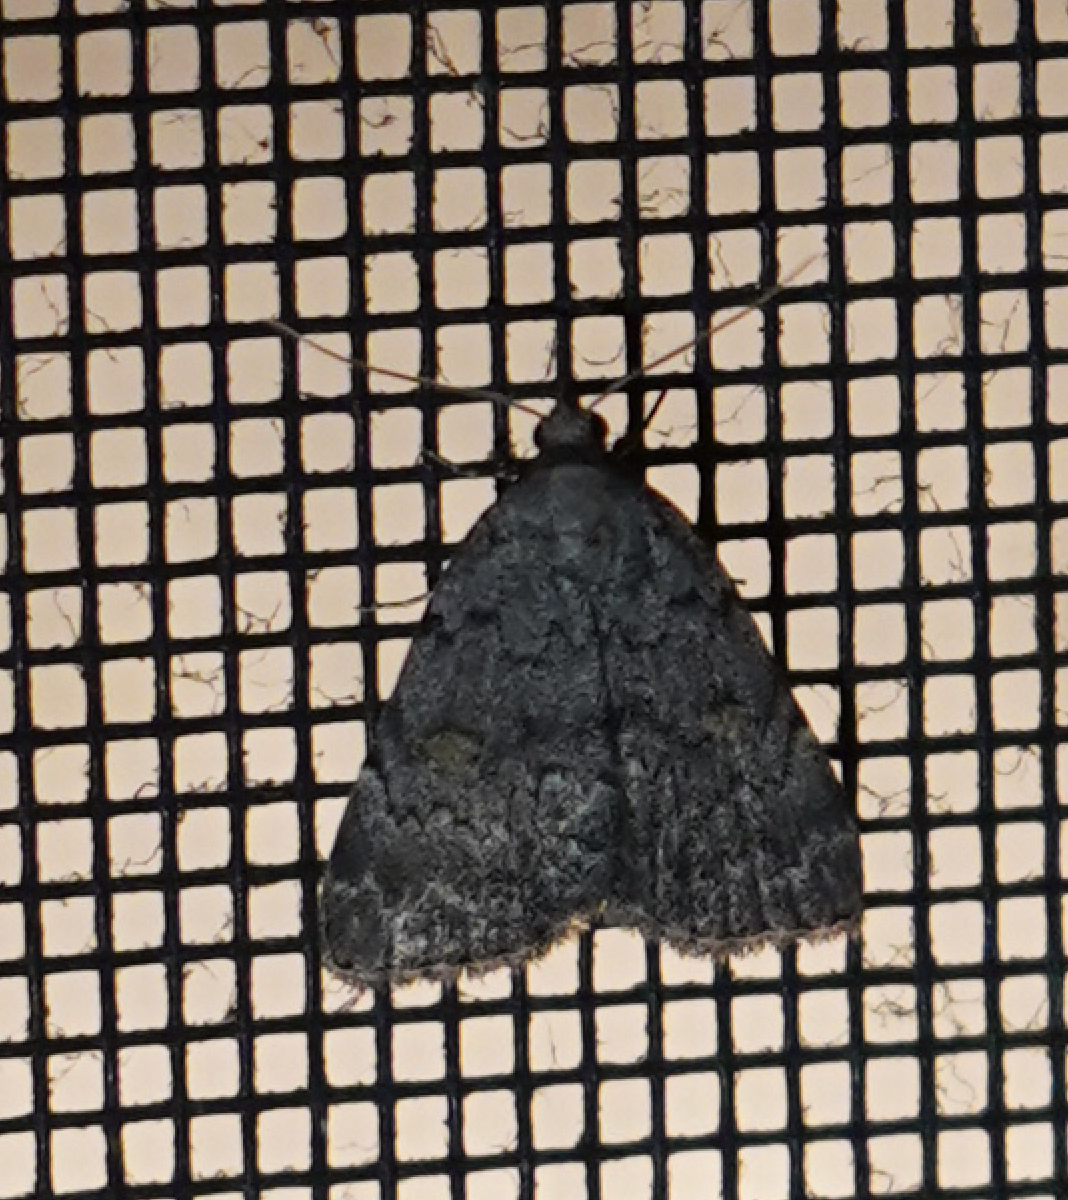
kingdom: Animalia
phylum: Arthropoda
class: Insecta
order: Lepidoptera
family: Erebidae
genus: Idia
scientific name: Idia aemula
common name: Common idia moth
